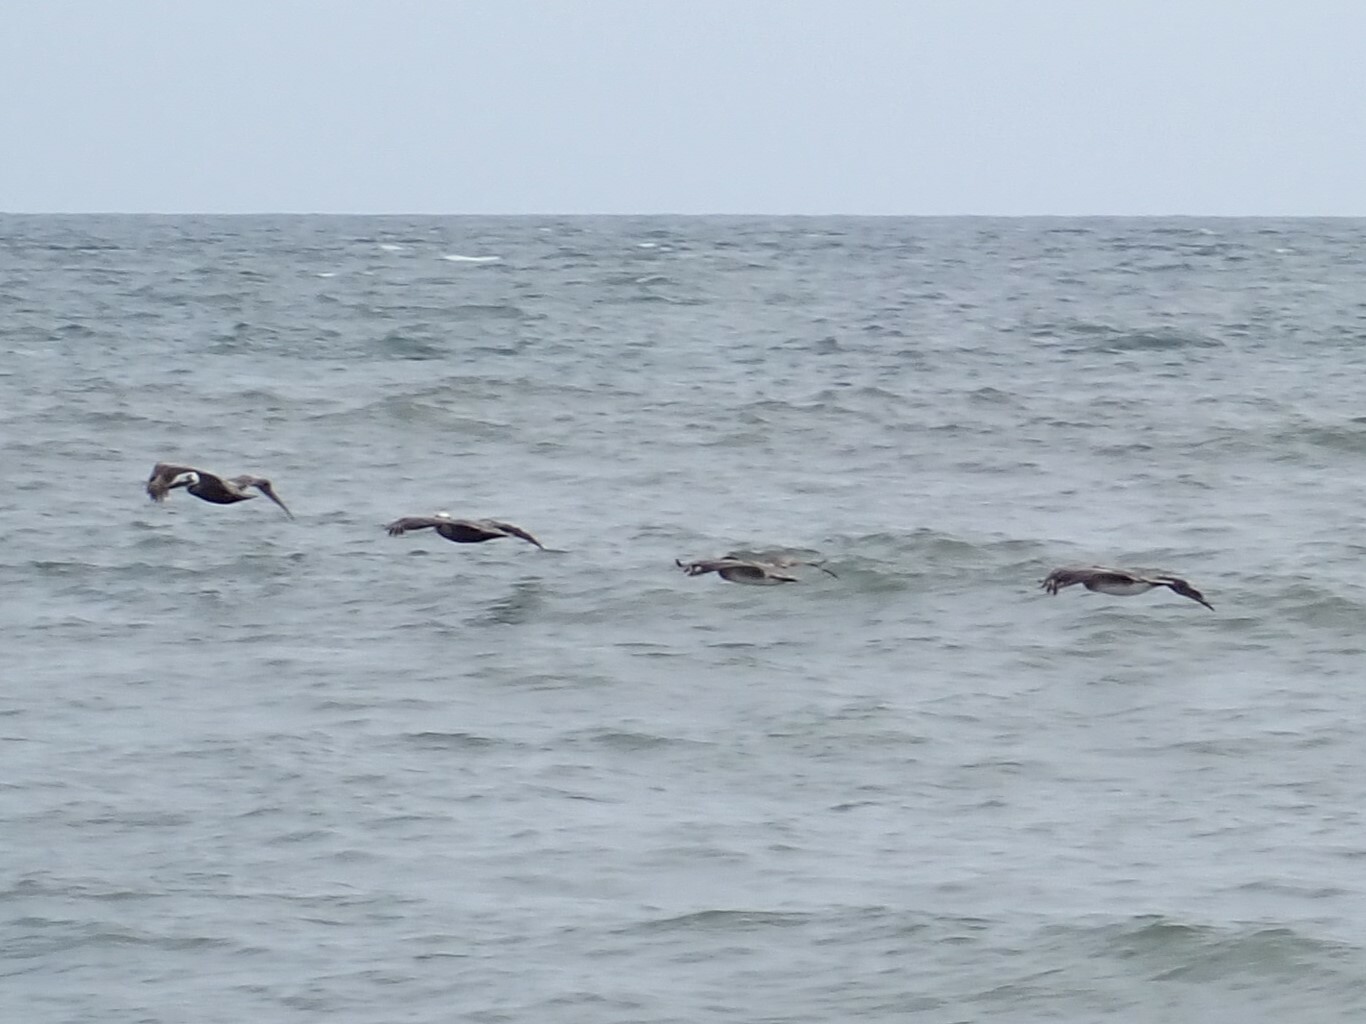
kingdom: Animalia
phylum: Chordata
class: Aves
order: Pelecaniformes
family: Pelecanidae
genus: Pelecanus
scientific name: Pelecanus occidentalis
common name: Brown pelican
